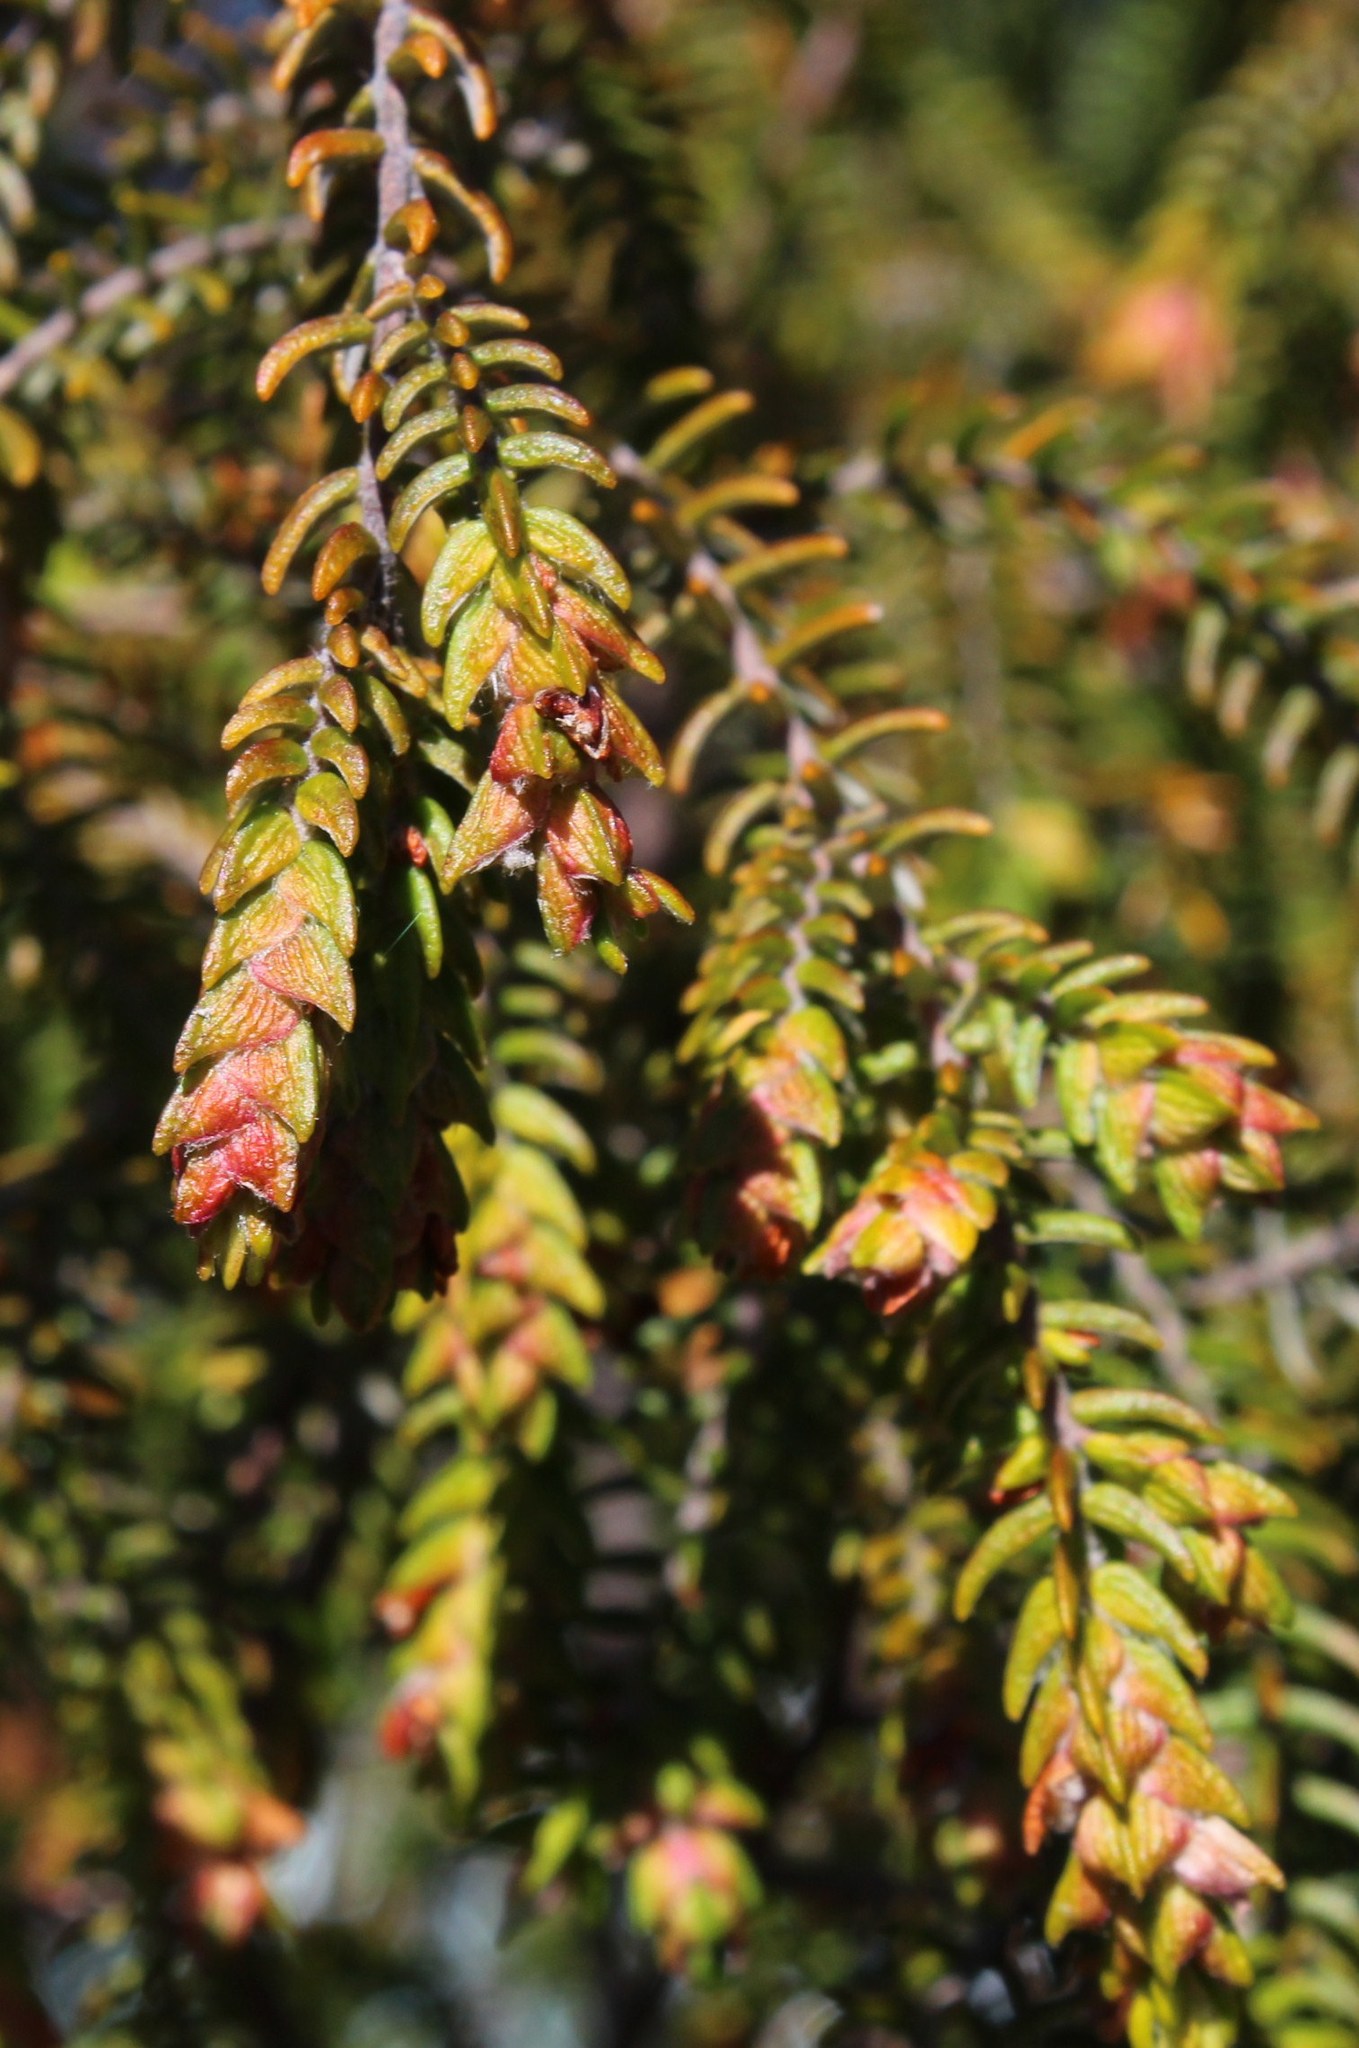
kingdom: Plantae
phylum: Tracheophyta
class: Magnoliopsida
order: Malvales
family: Thymelaeaceae
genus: Passerina
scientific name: Passerina falcifolia
